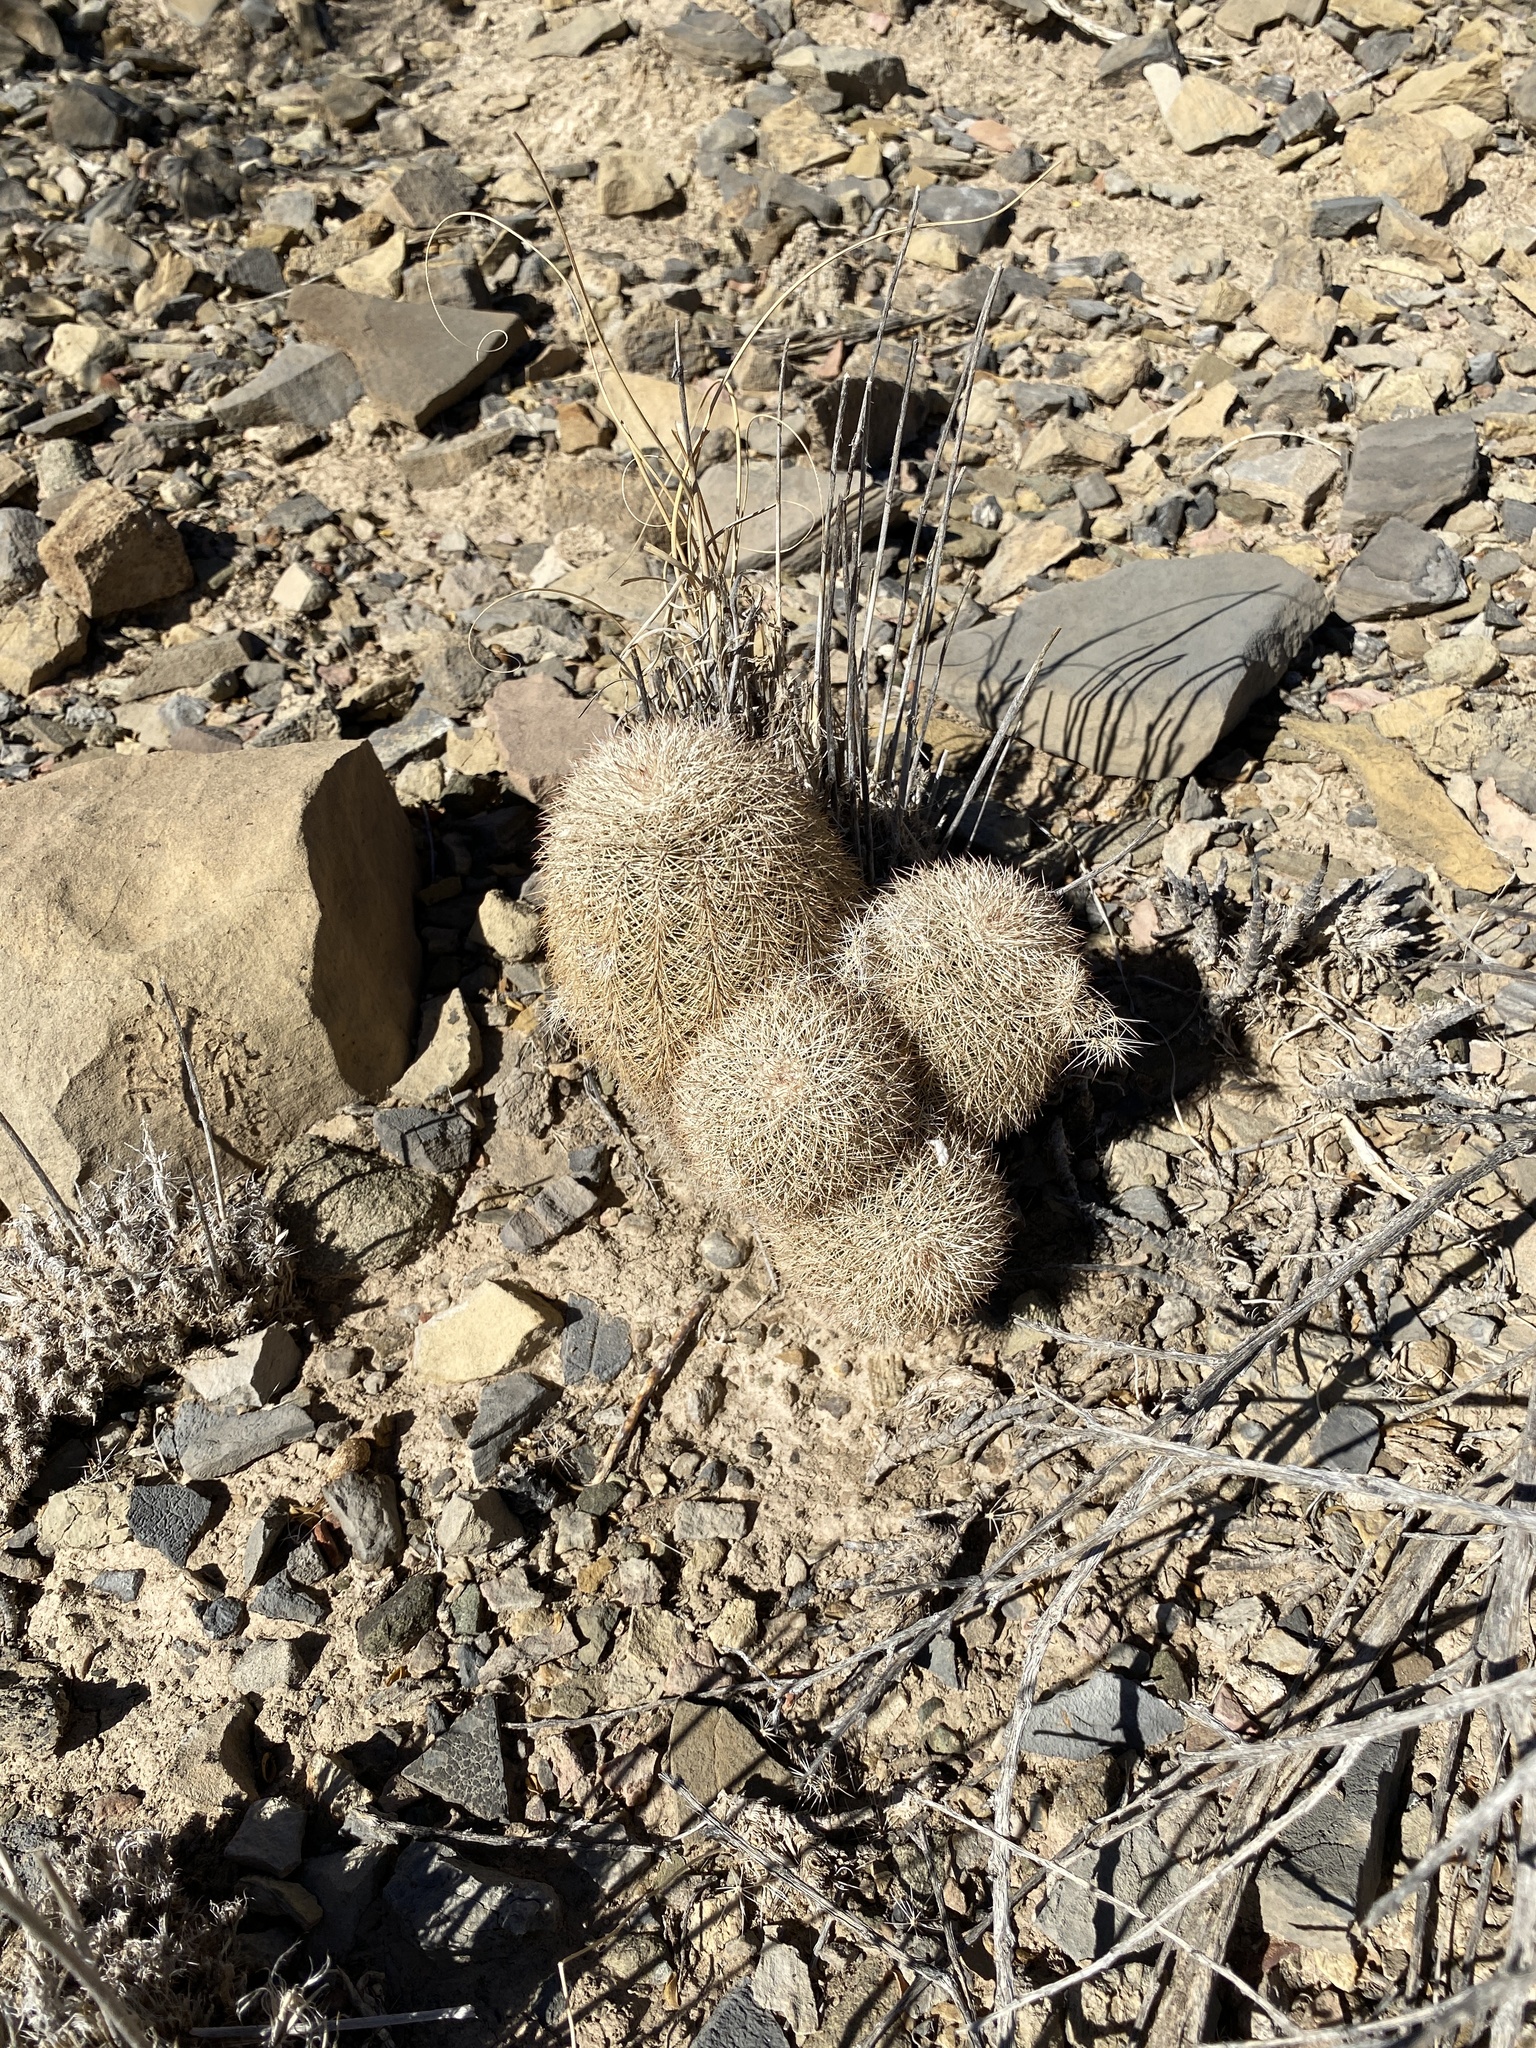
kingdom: Plantae
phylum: Tracheophyta
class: Magnoliopsida
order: Caryophyllales
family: Cactaceae
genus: Echinocereus
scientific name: Echinocereus dasyacanthus
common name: Spiny hedgehog cactus
